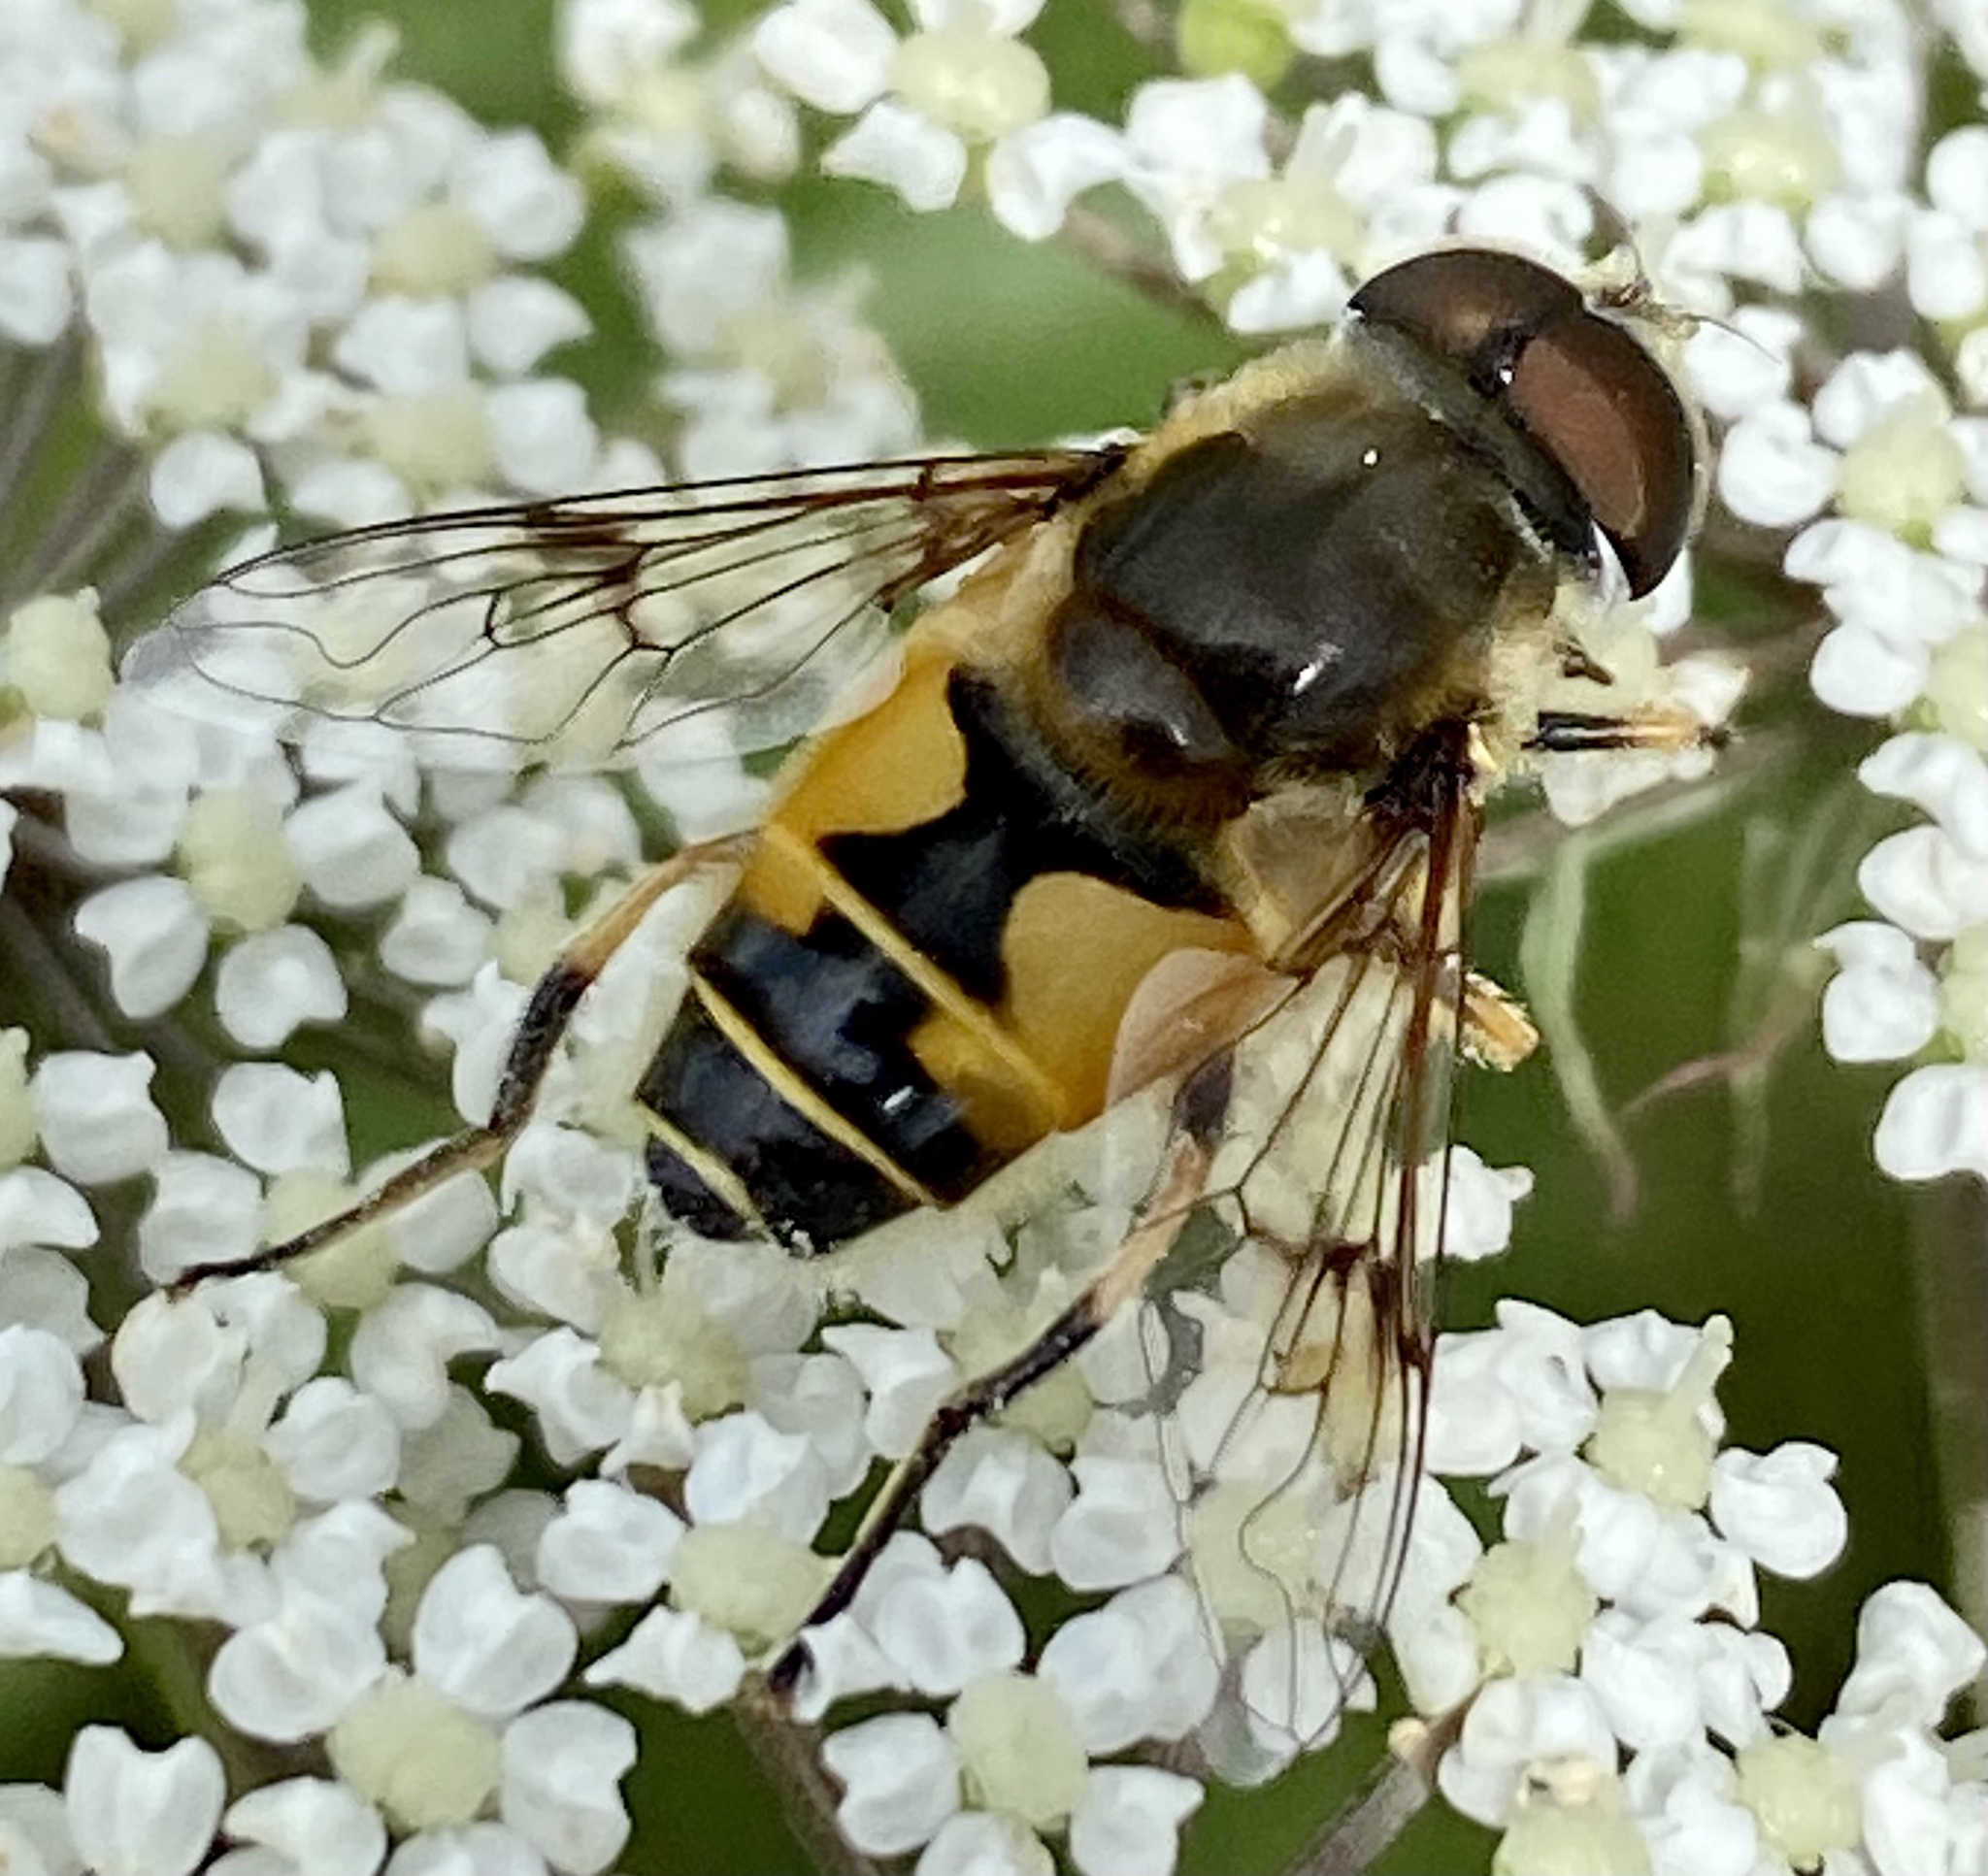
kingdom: Animalia
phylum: Arthropoda
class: Insecta
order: Diptera
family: Syrphidae
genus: Cheilosia
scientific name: Cheilosia morio
